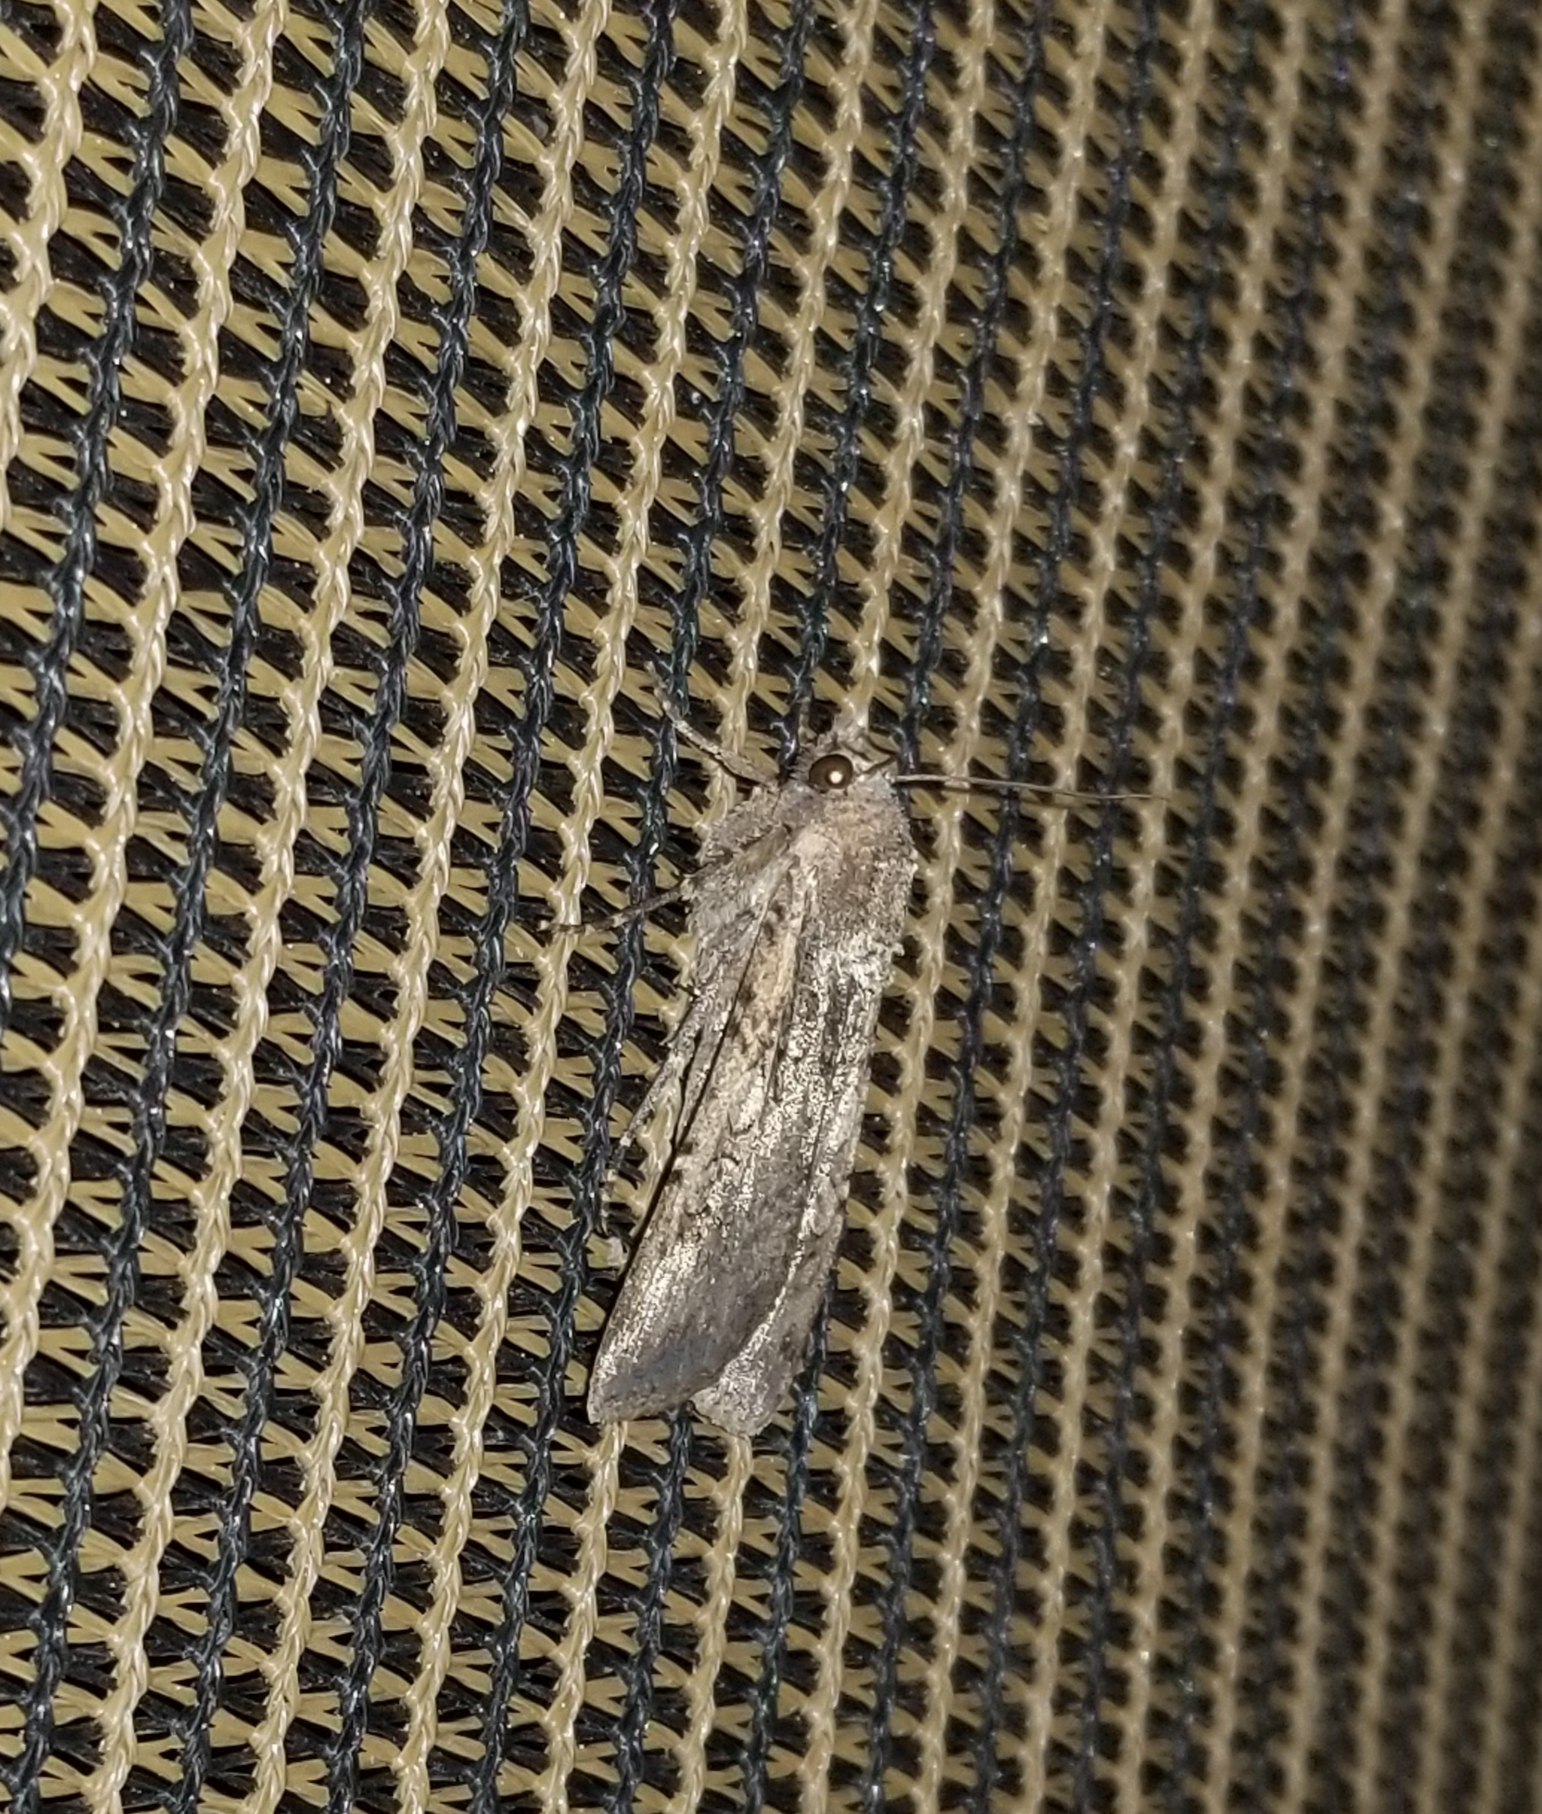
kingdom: Animalia
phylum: Arthropoda
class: Insecta
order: Lepidoptera
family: Noctuidae
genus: Peridroma
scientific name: Peridroma saucia
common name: Pearly underwing
